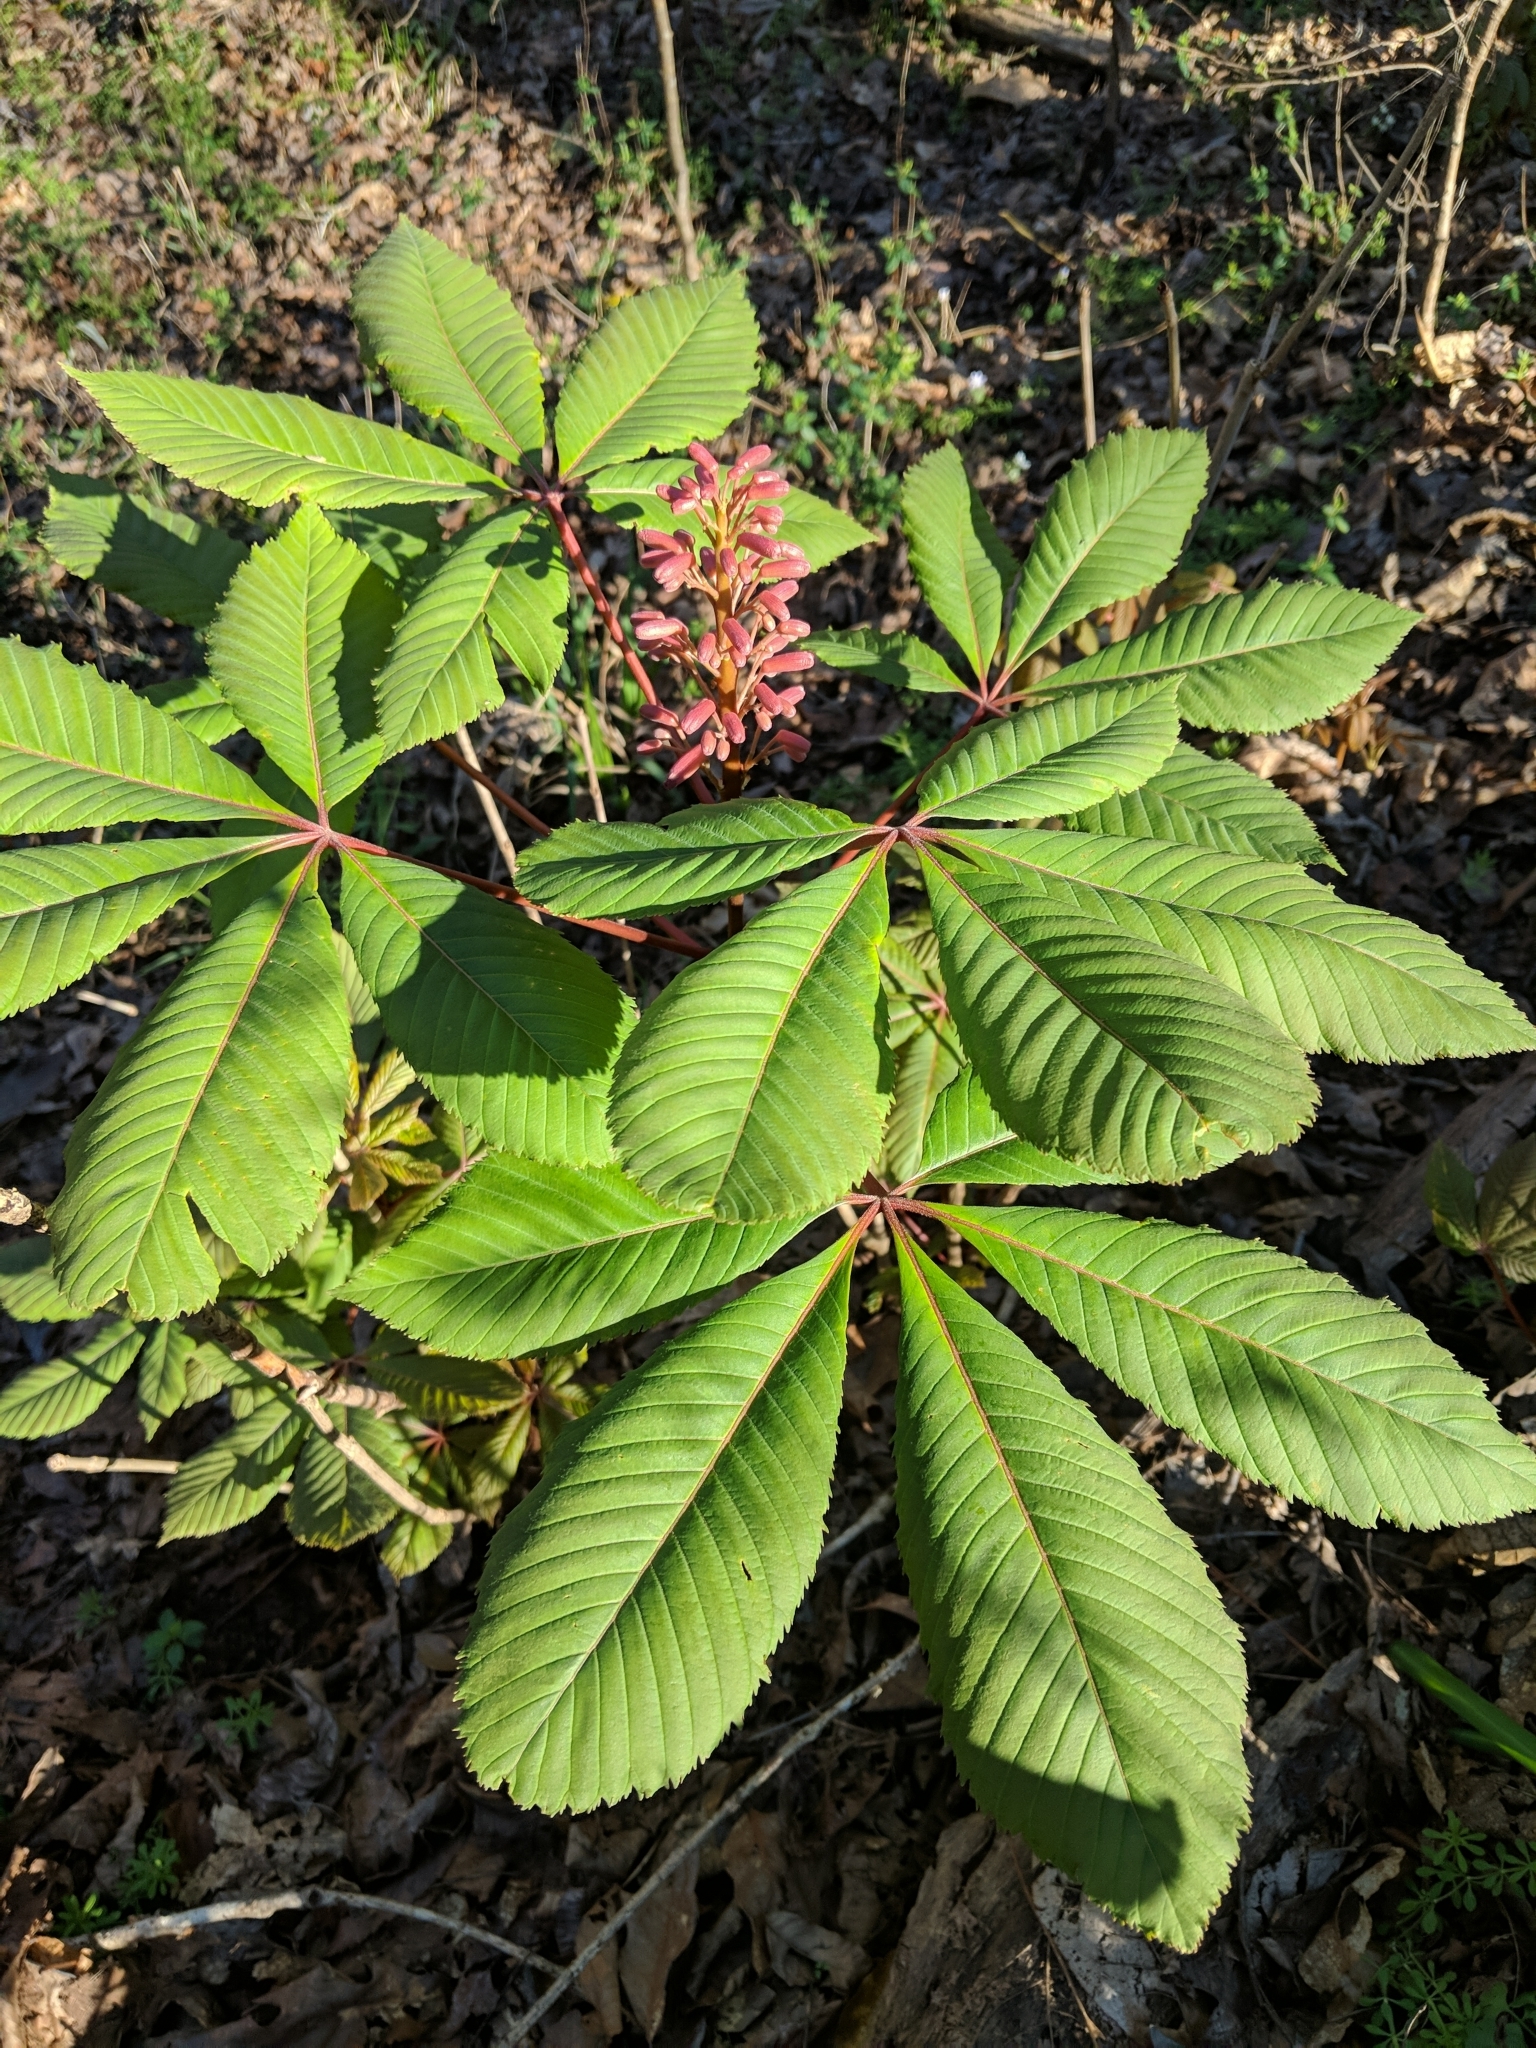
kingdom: Plantae
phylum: Tracheophyta
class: Magnoliopsida
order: Sapindales
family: Sapindaceae
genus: Aesculus
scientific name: Aesculus pavia
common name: Red buckeye
